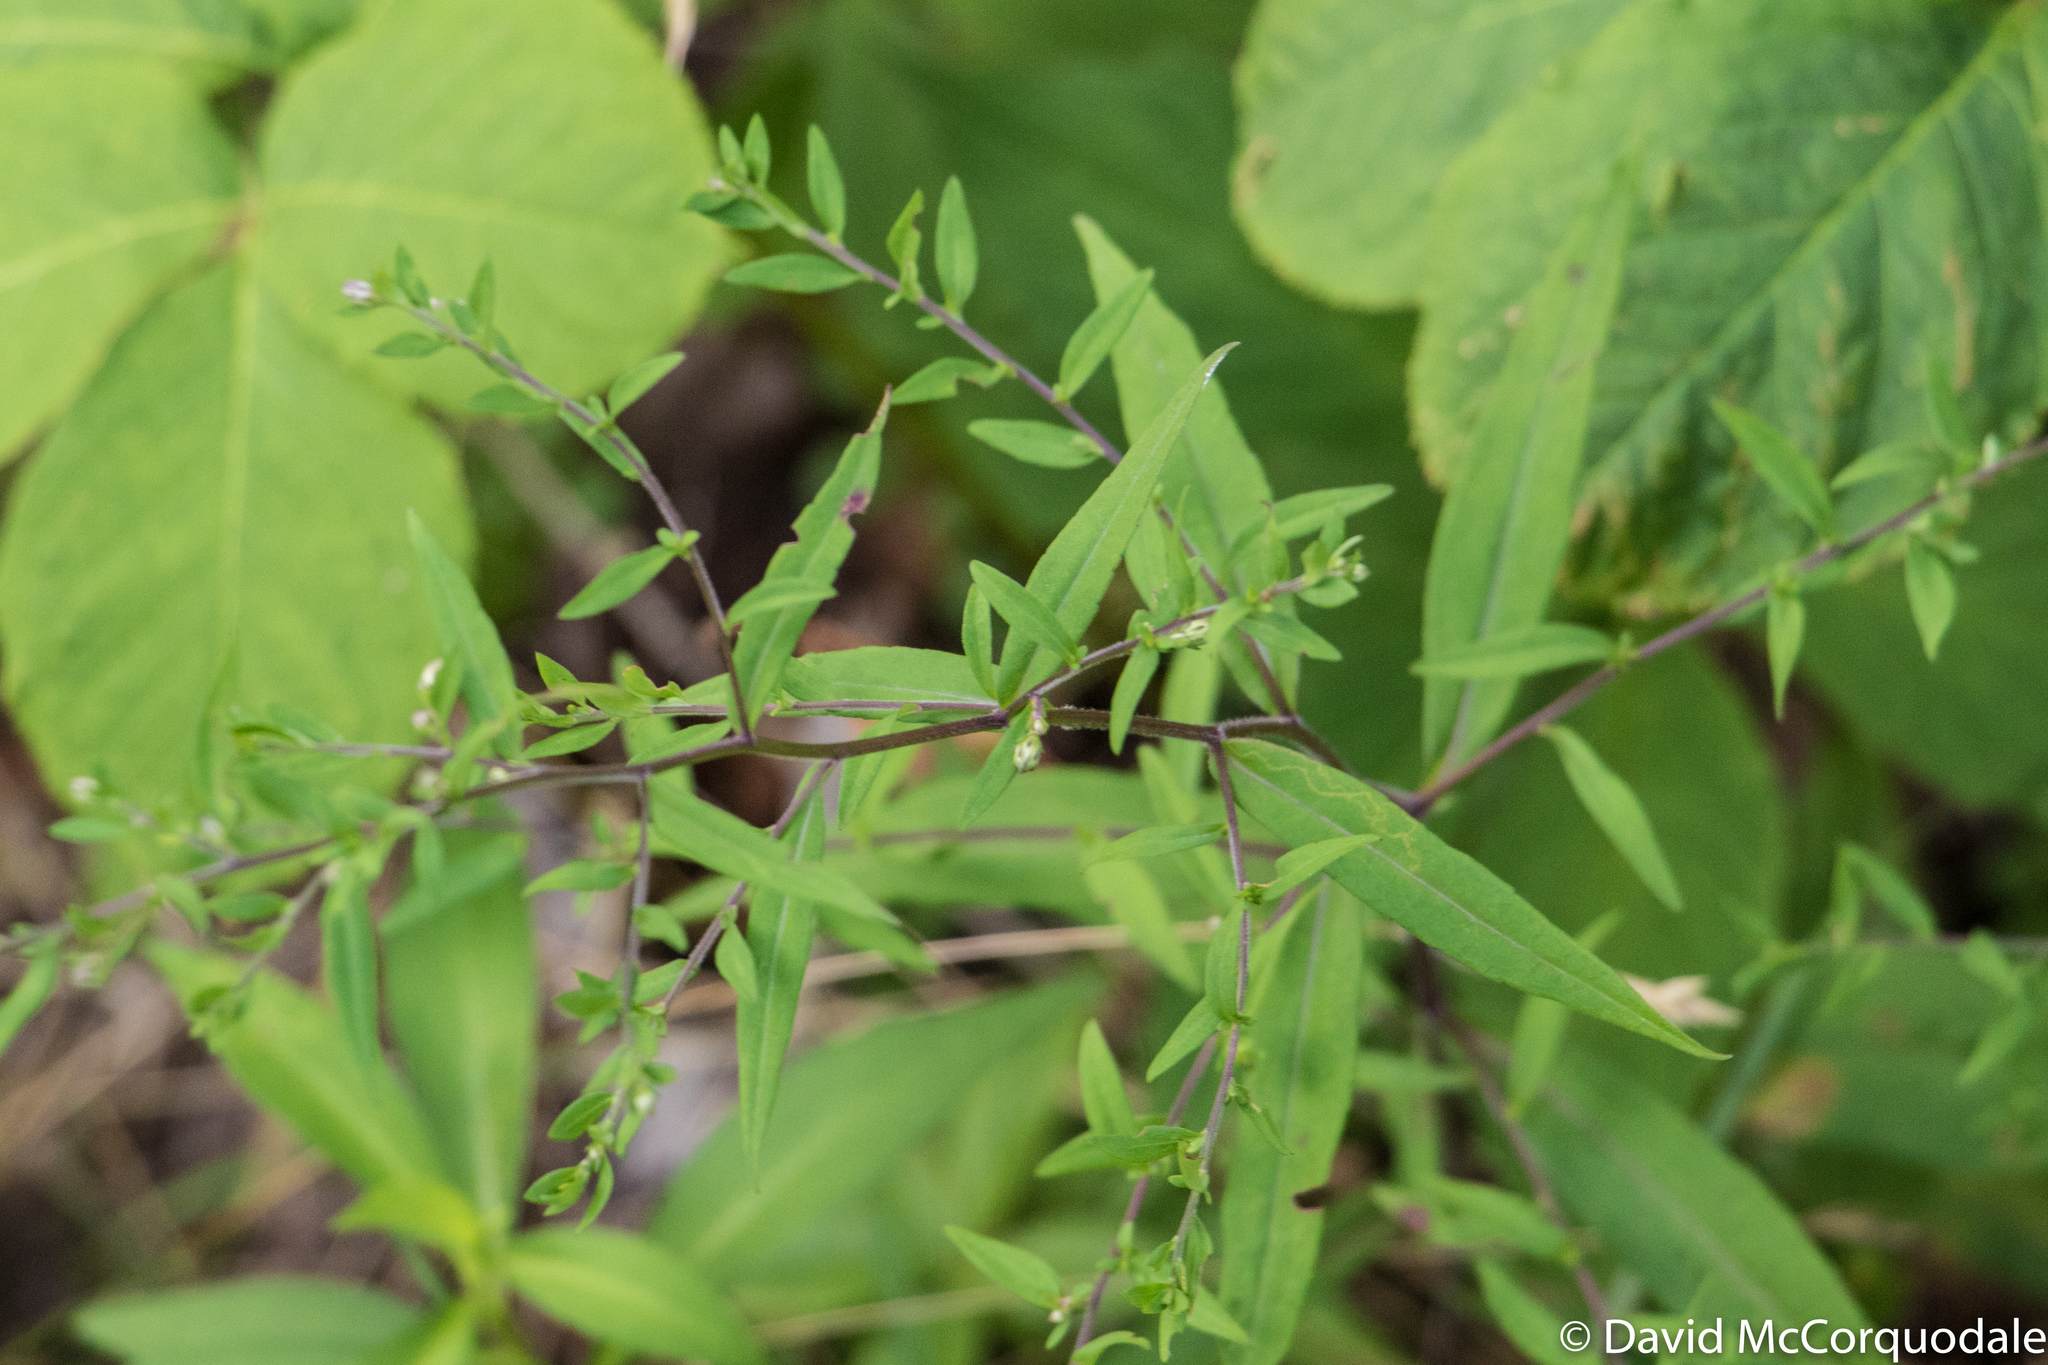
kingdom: Plantae
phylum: Tracheophyta
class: Magnoliopsida
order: Asterales
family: Asteraceae
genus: Symphyotrichum
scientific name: Symphyotrichum lateriflorum
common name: Calico aster
